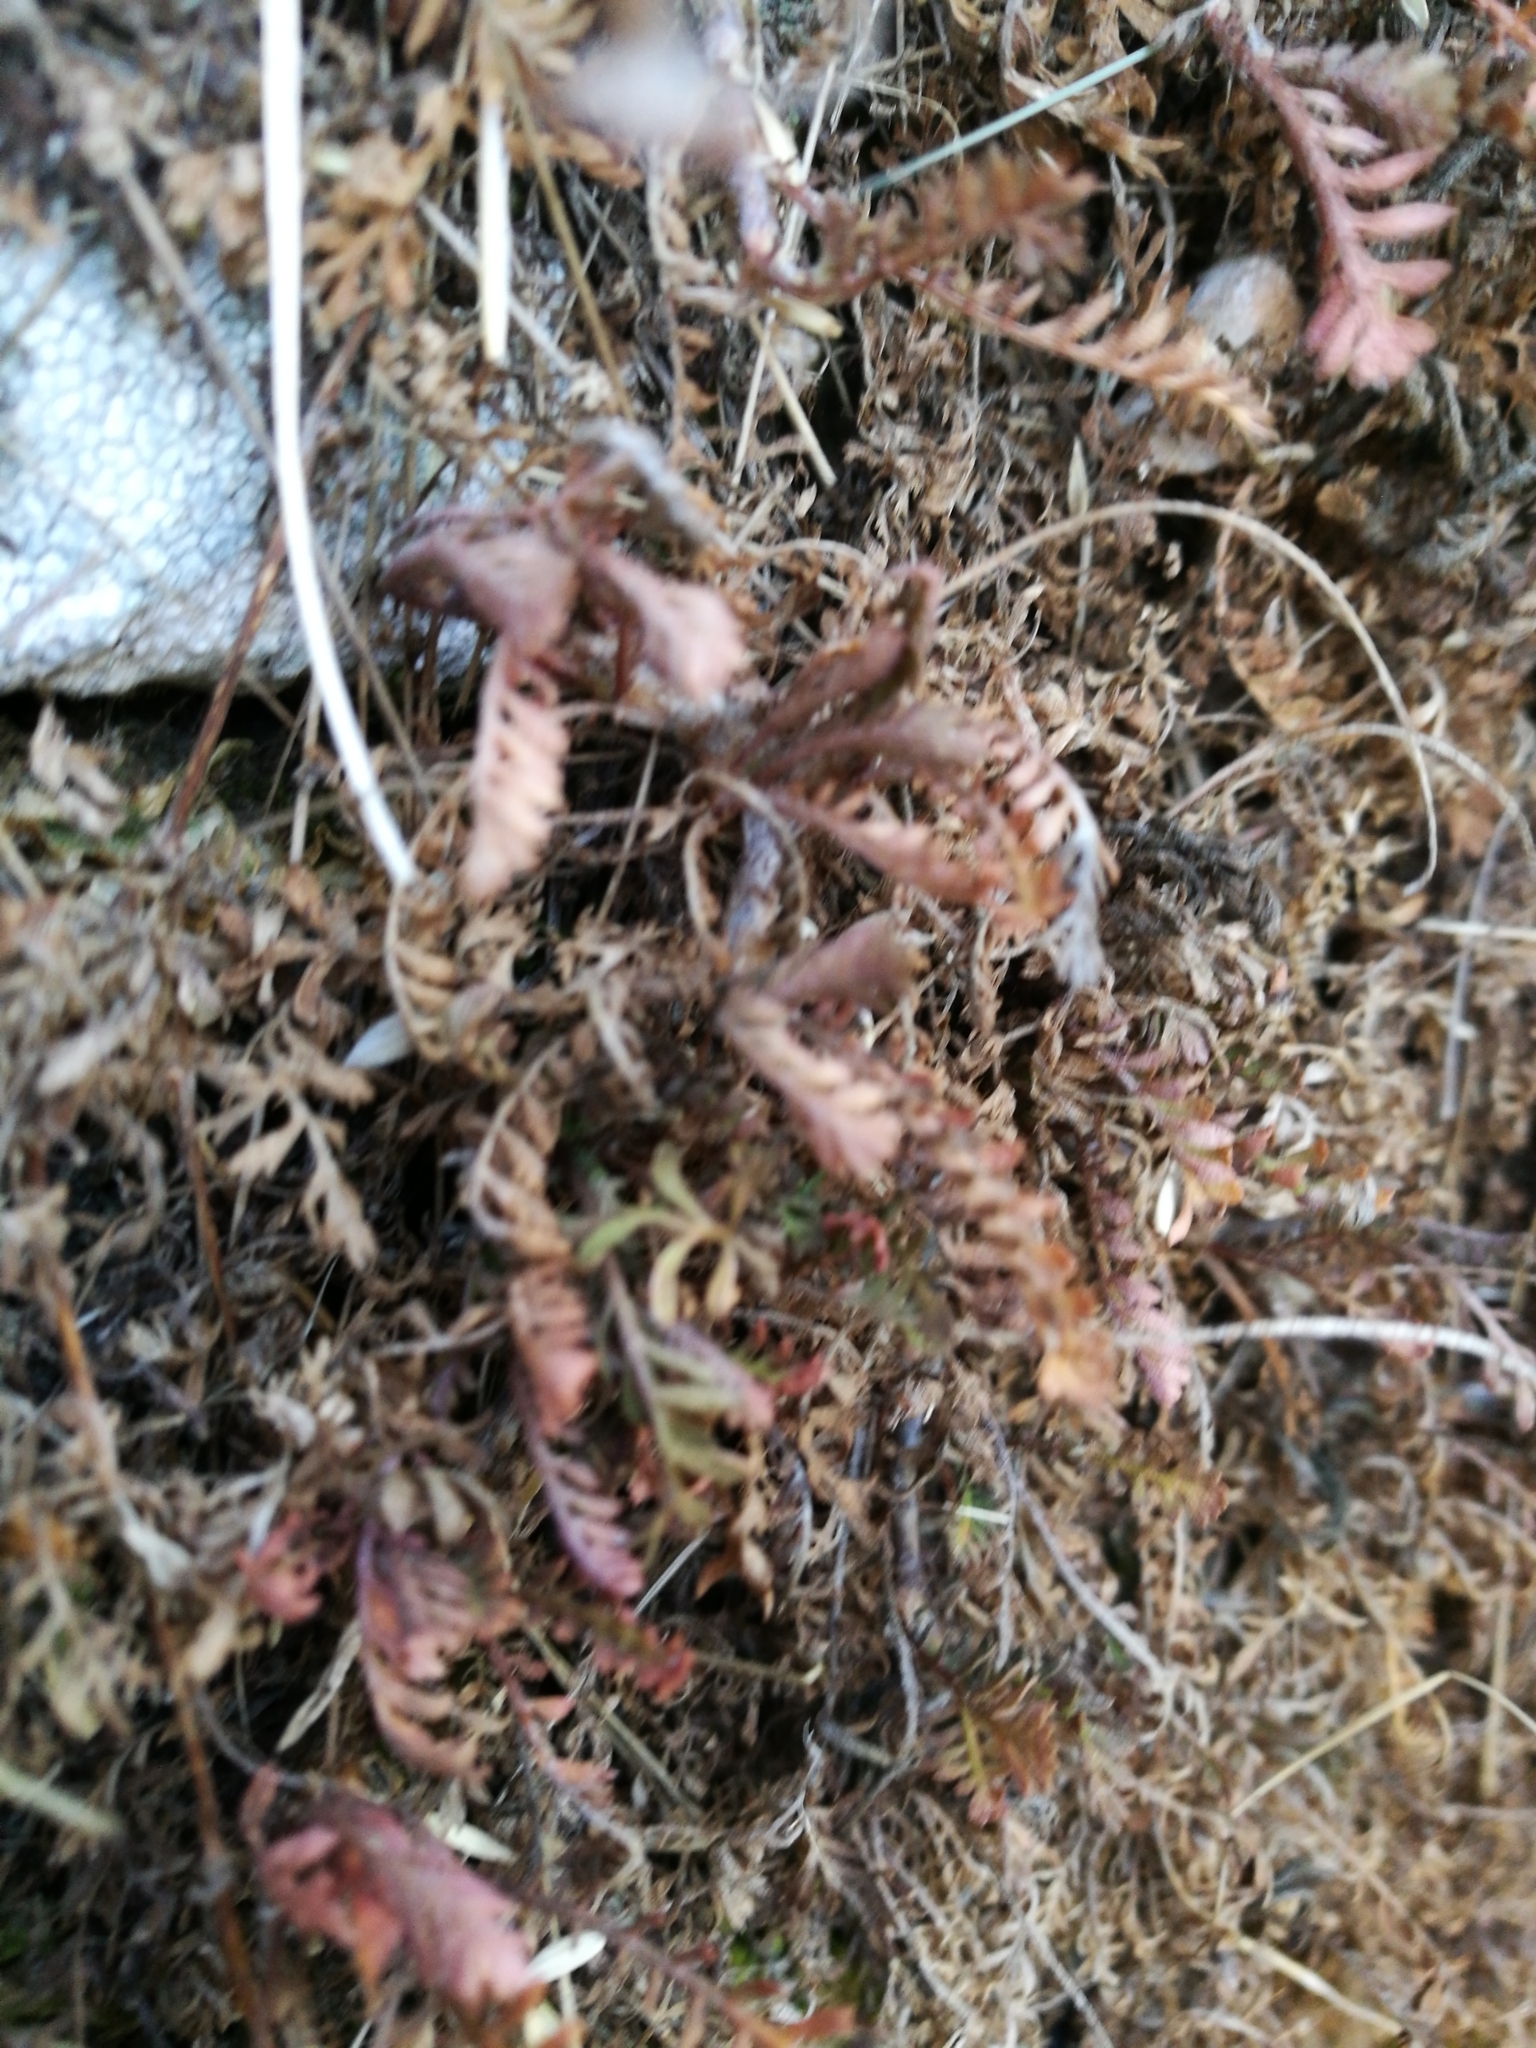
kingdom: Plantae
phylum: Tracheophyta
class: Magnoliopsida
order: Asterales
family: Asteraceae
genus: Leptinella
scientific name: Leptinella minor
